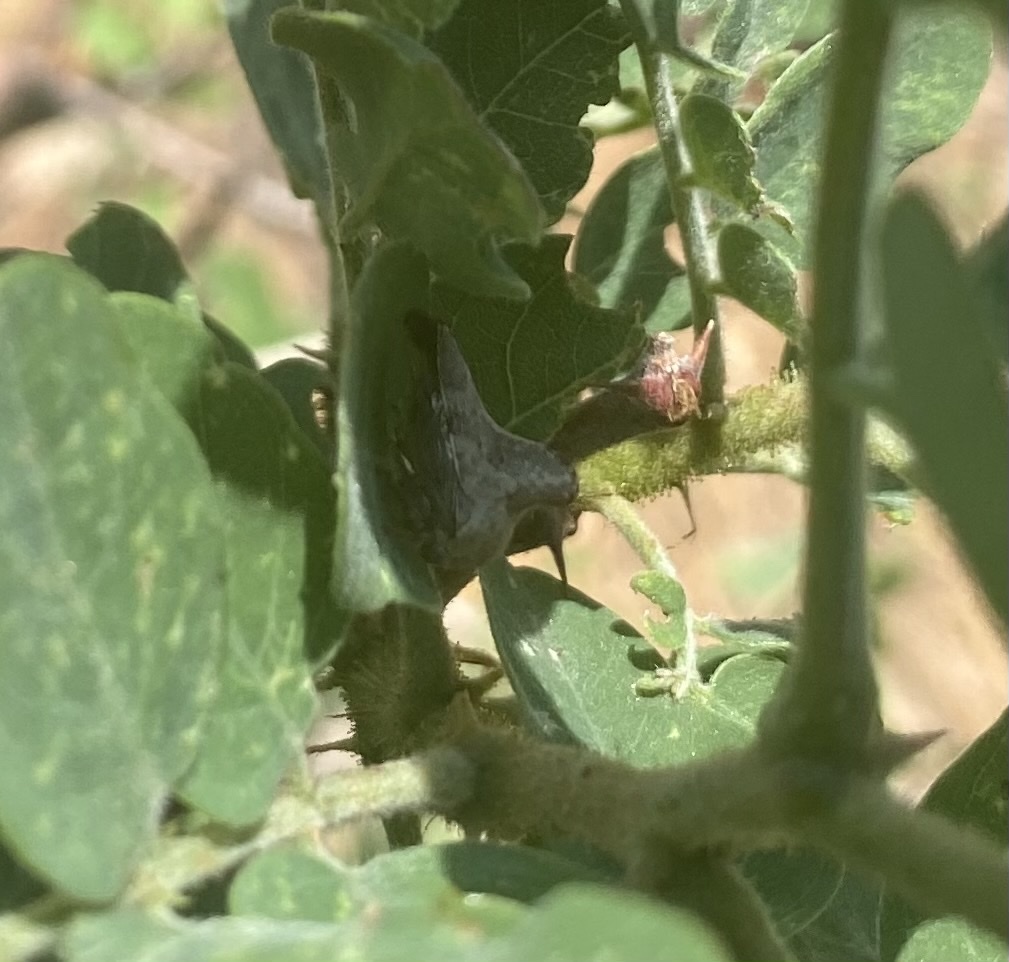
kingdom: Animalia
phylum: Arthropoda
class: Insecta
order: Hemiptera
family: Membracidae
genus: Telamona
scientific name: Telamona gibbera
